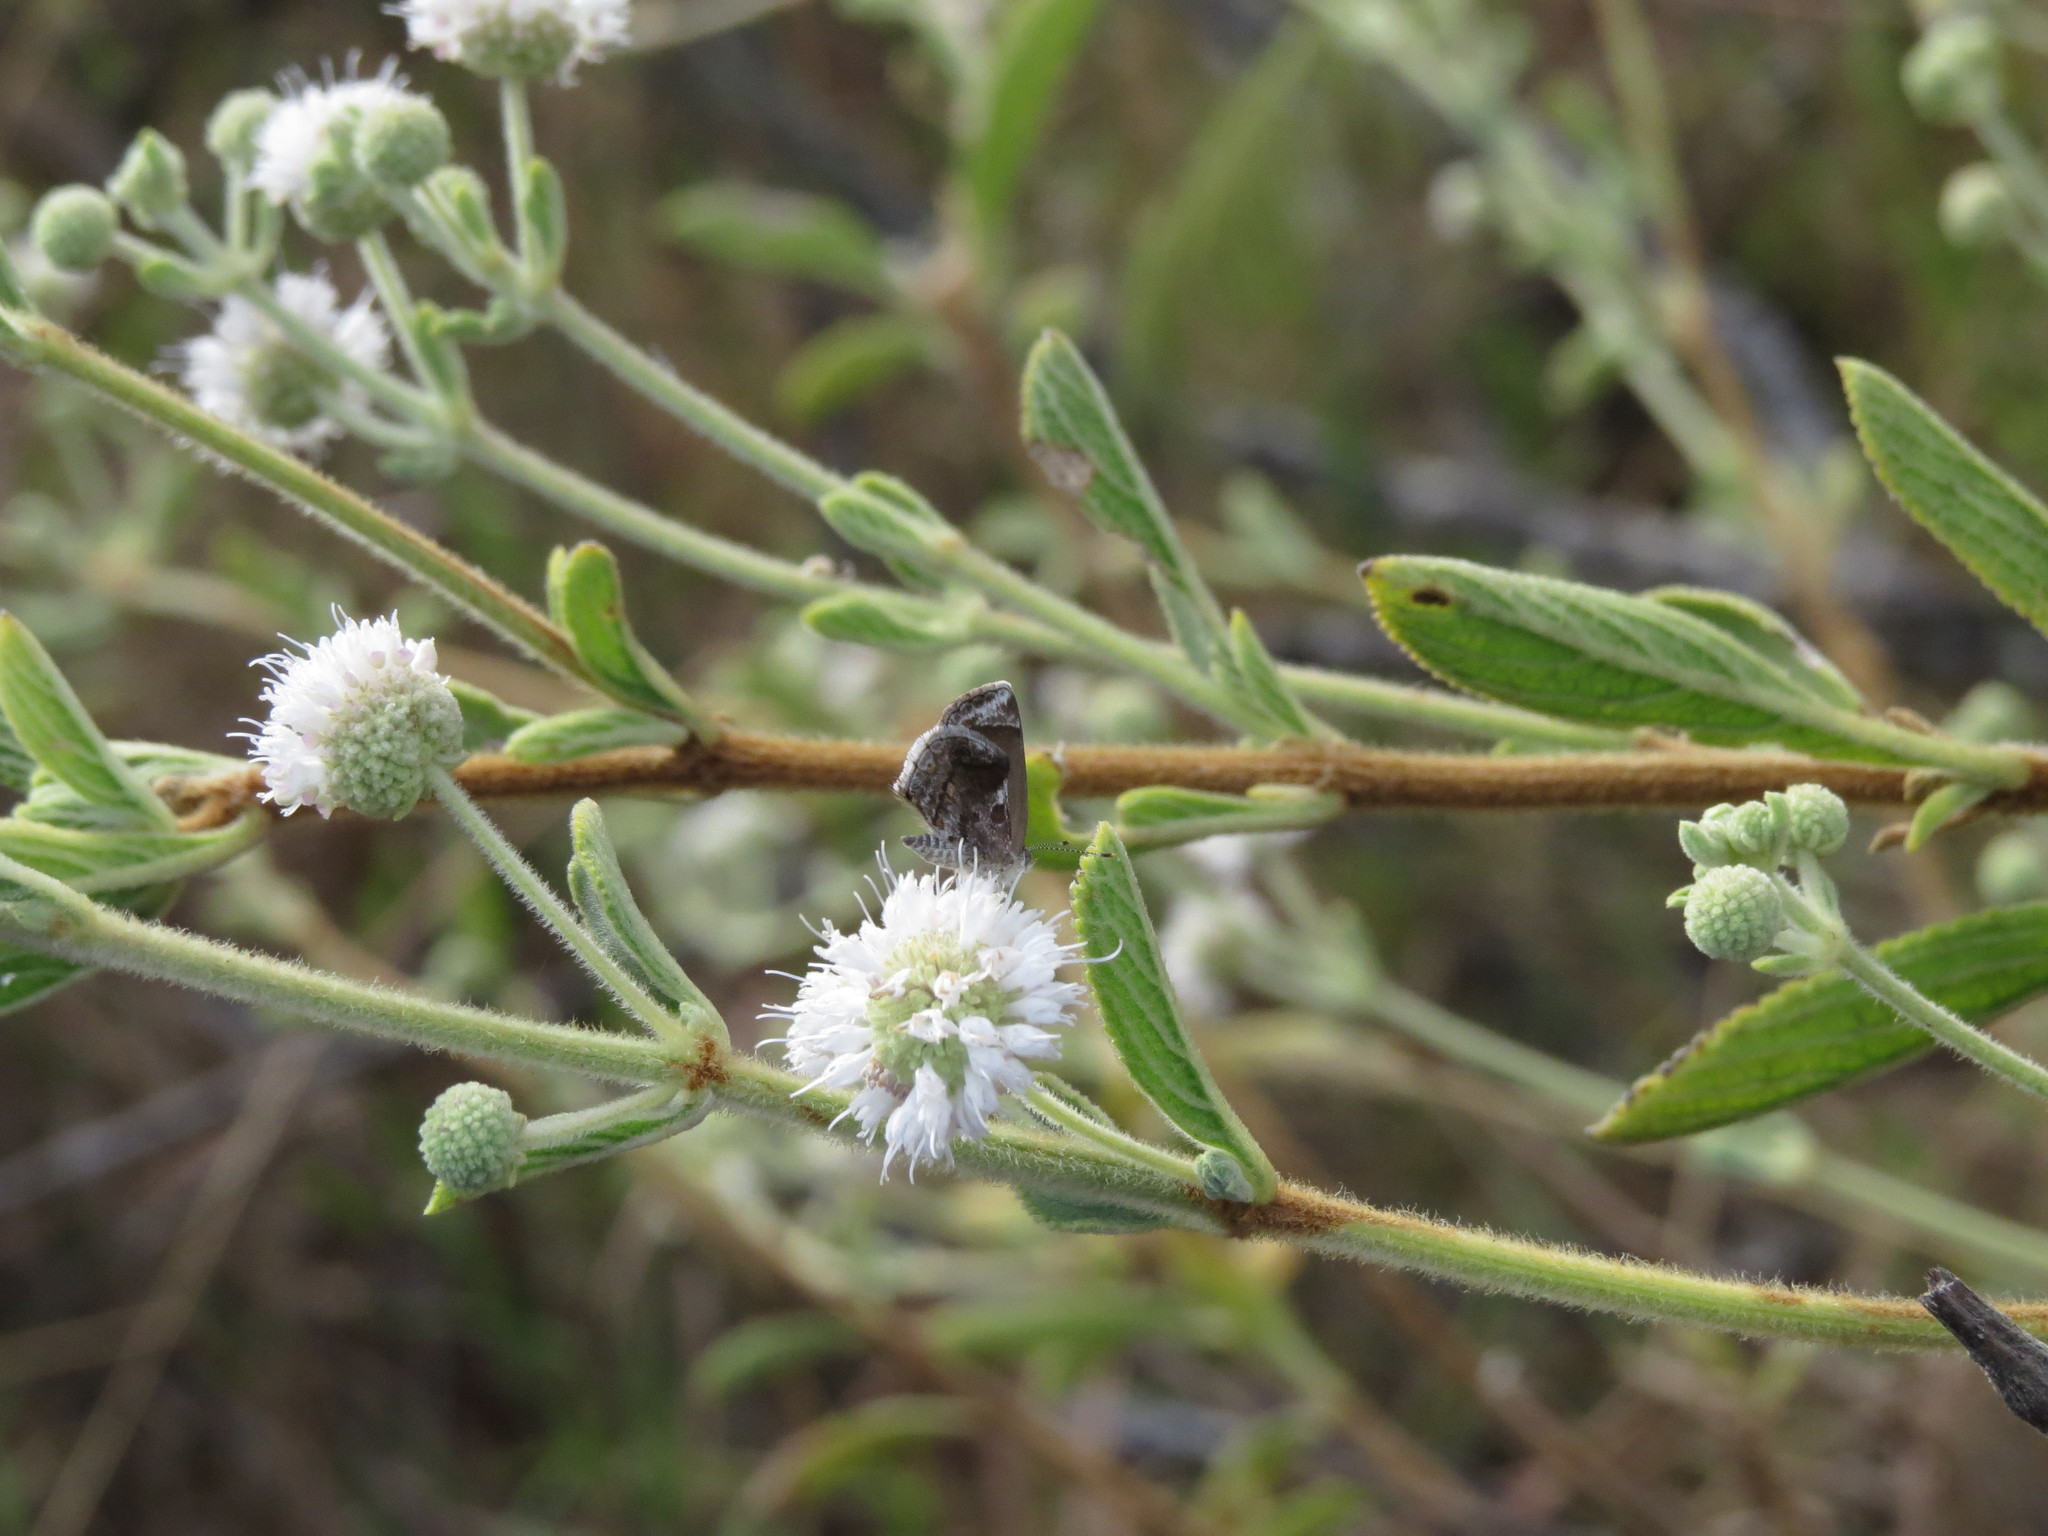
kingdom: Animalia
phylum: Arthropoda
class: Insecta
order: Lepidoptera
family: Lycaenidae
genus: Strymon
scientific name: Strymon bazochii
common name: Lantana scrub-hairstreak
